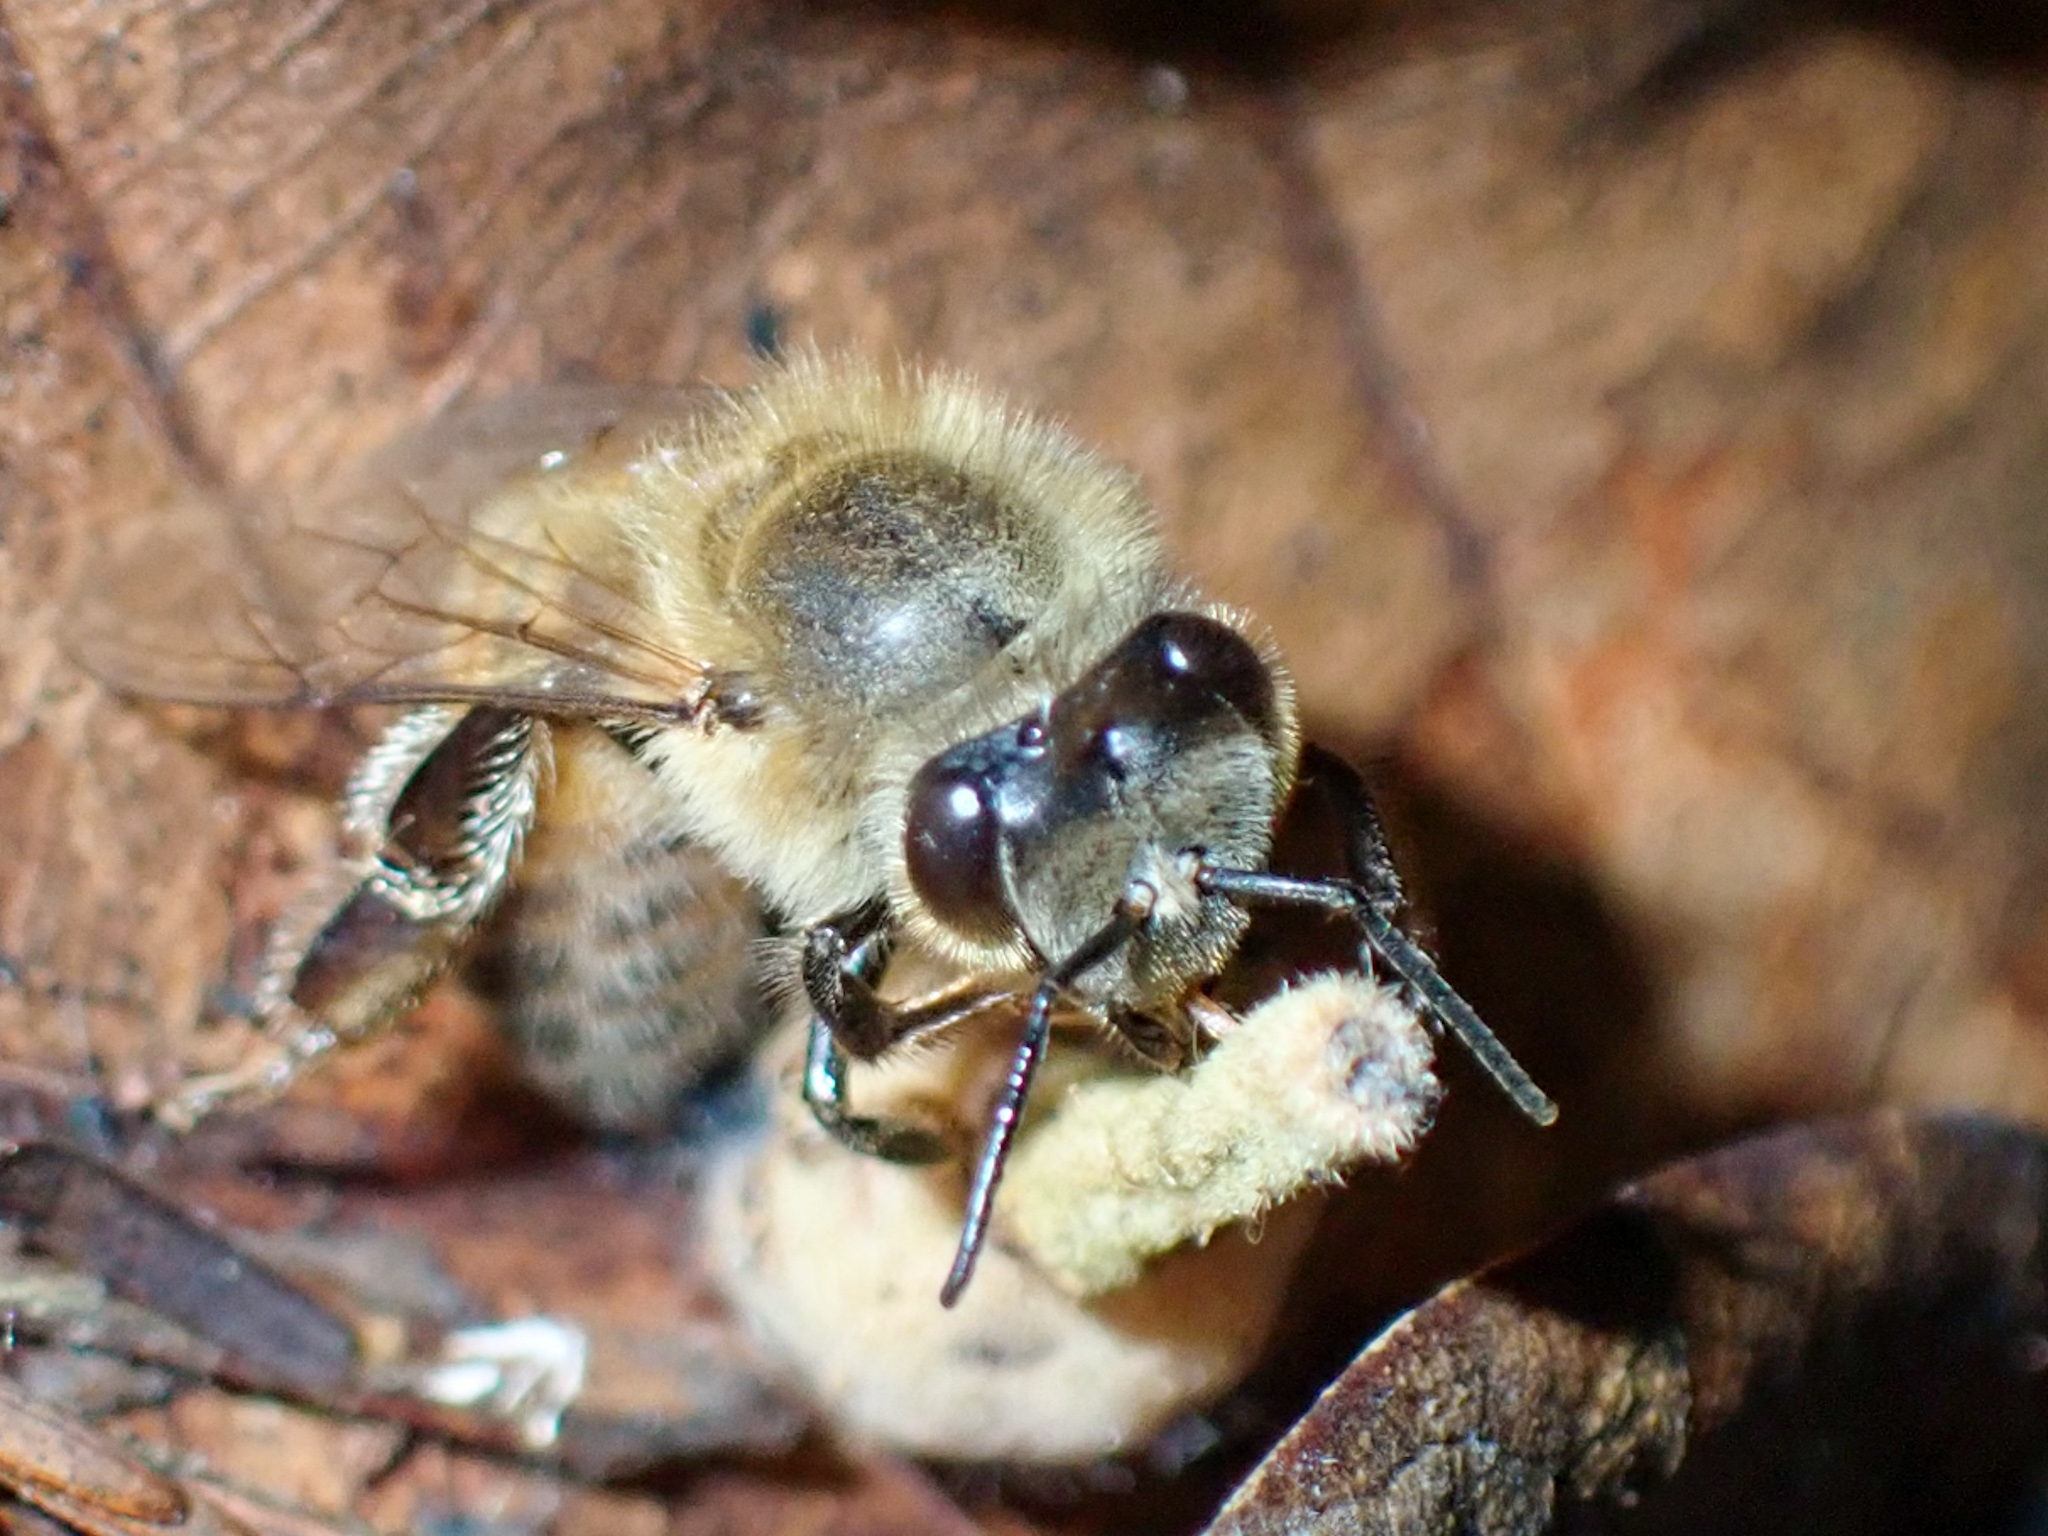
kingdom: Animalia
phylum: Arthropoda
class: Insecta
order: Hymenoptera
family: Apidae
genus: Apis
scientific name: Apis mellifera
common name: Honey bee
